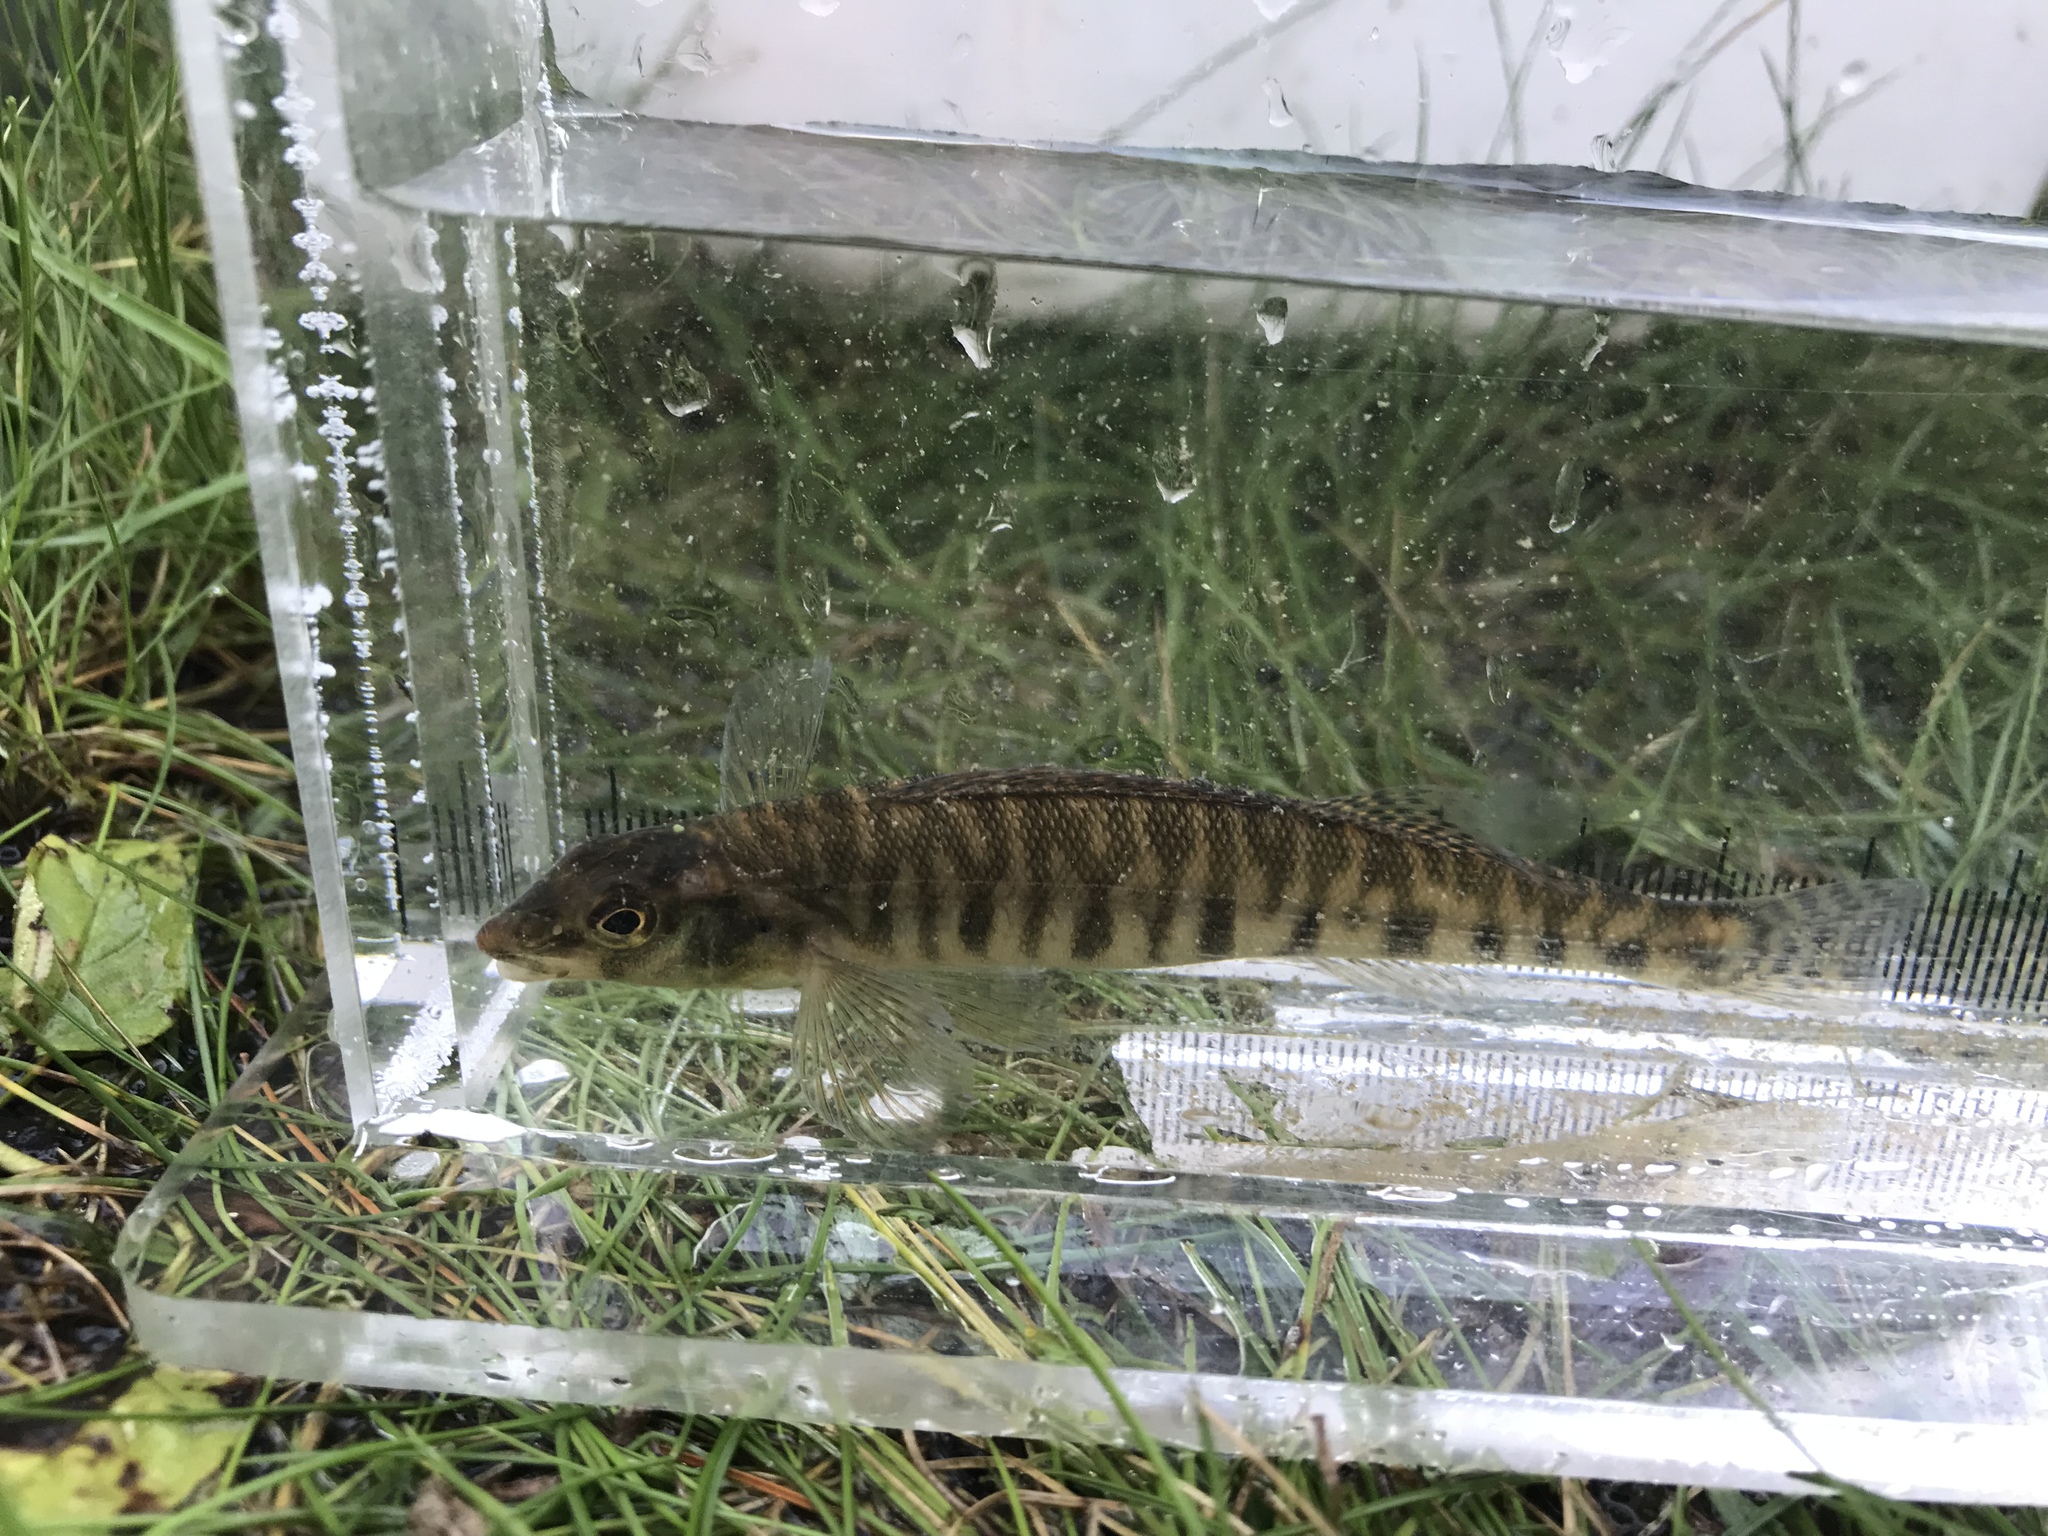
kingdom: Animalia
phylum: Chordata
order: Perciformes
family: Percidae
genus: Percina
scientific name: Percina caprodes
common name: Logperch
